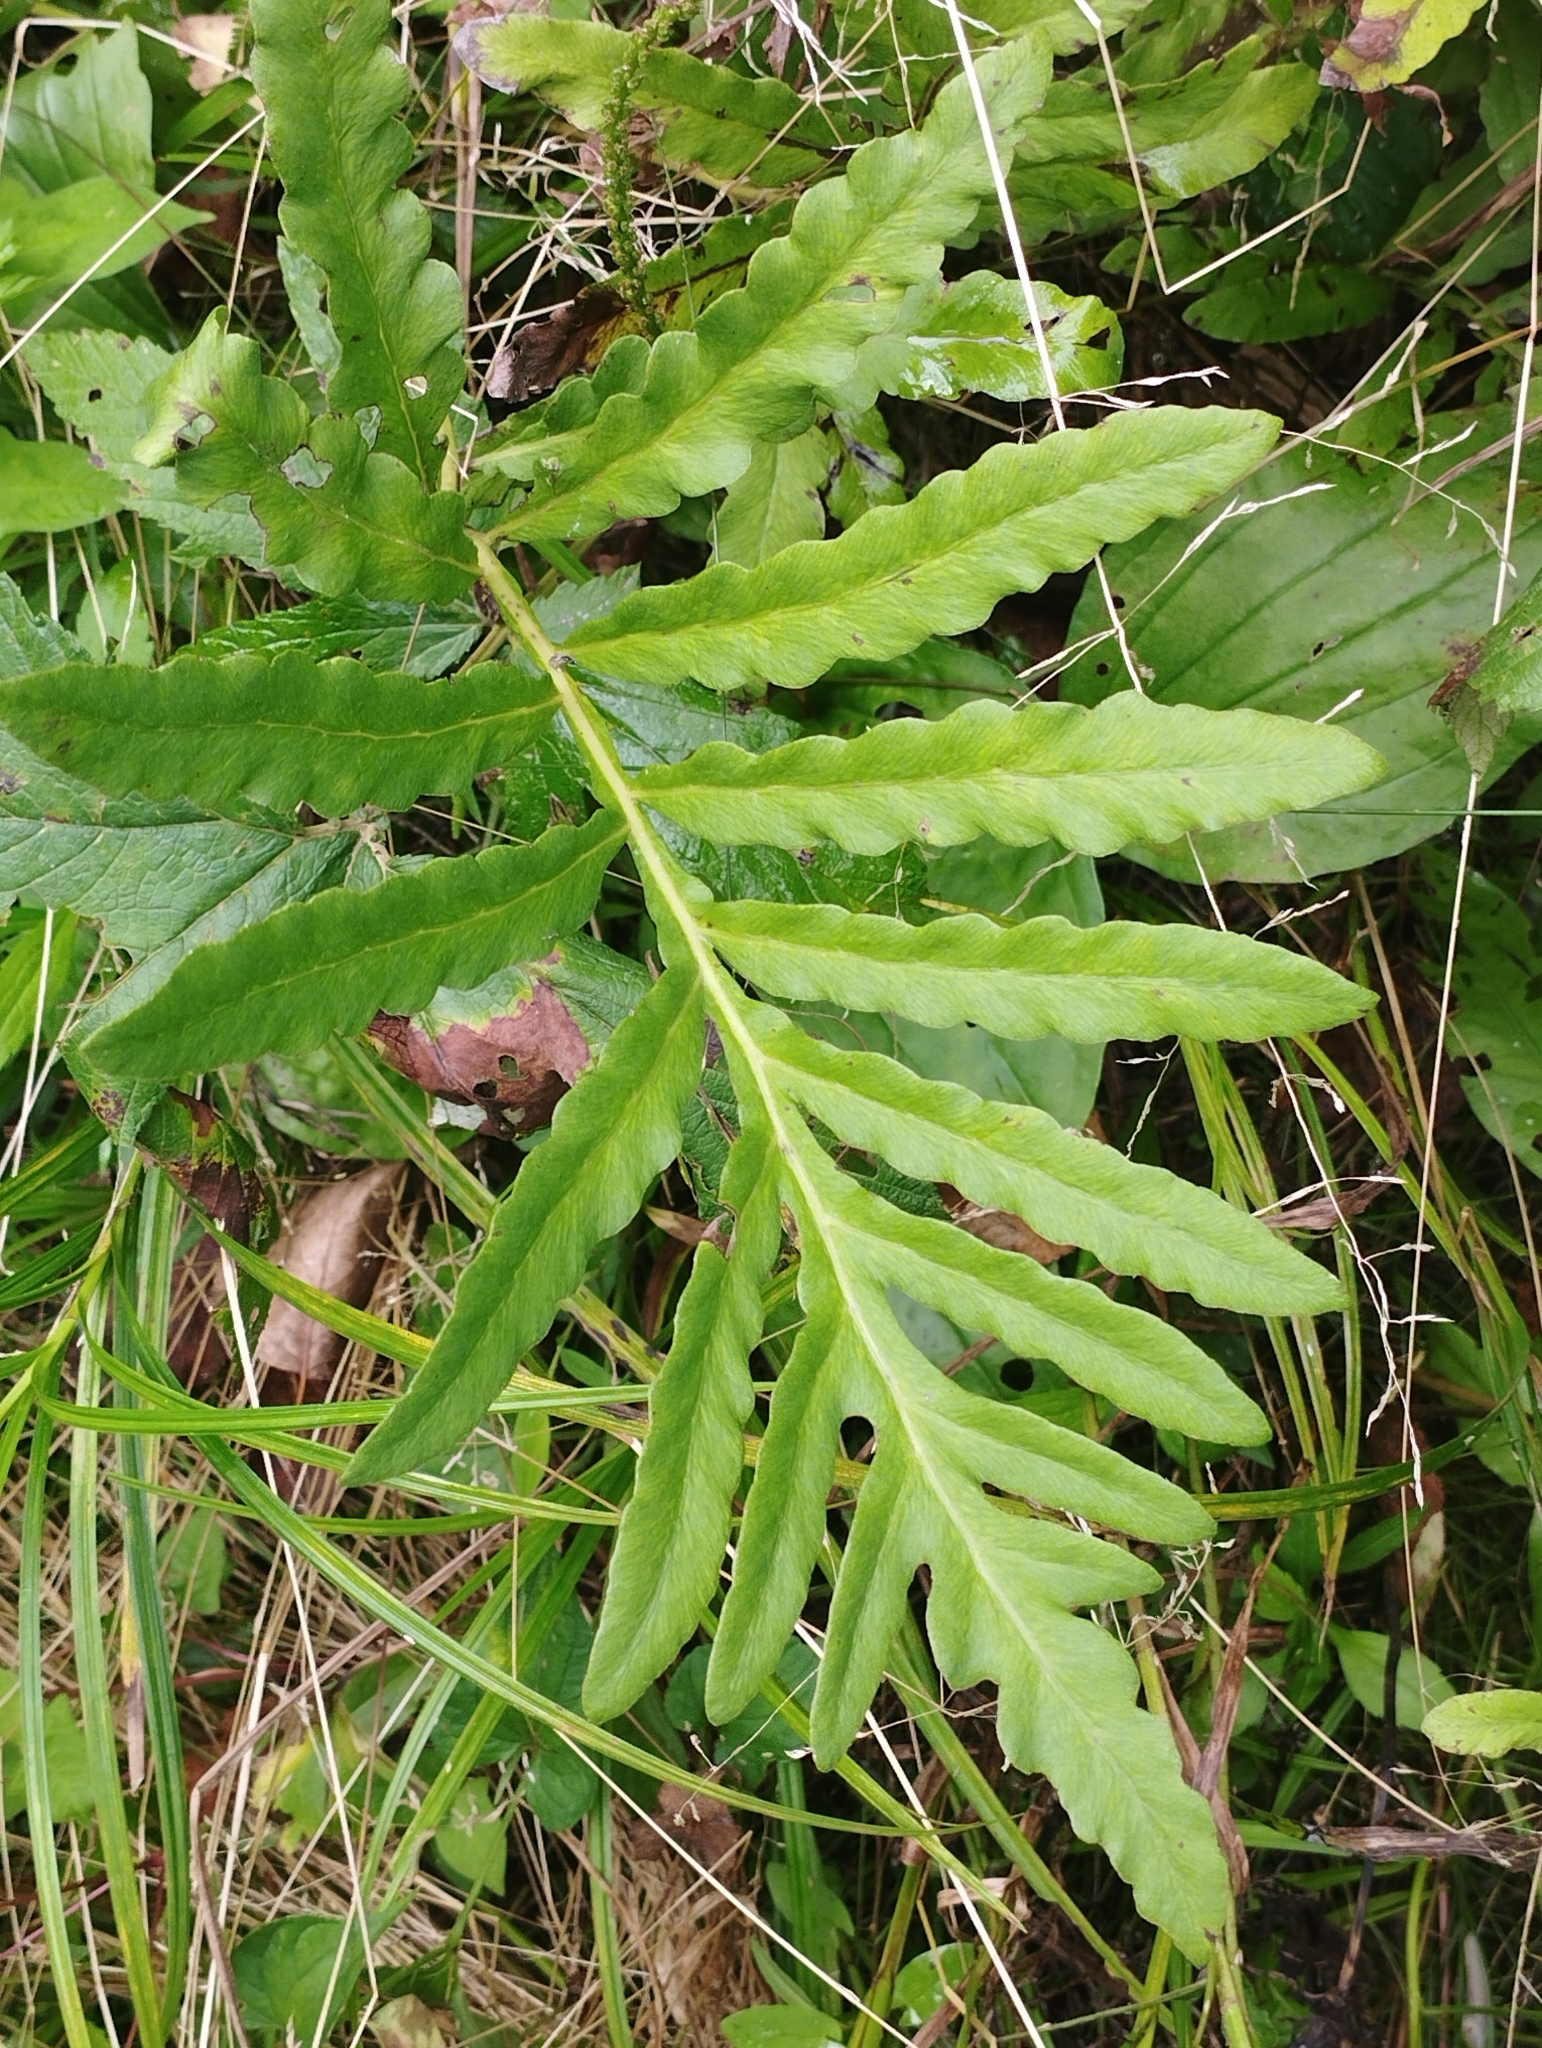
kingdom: Plantae
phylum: Tracheophyta
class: Polypodiopsida
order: Polypodiales
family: Onocleaceae
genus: Onoclea
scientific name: Onoclea sensibilis
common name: Sensitive fern
